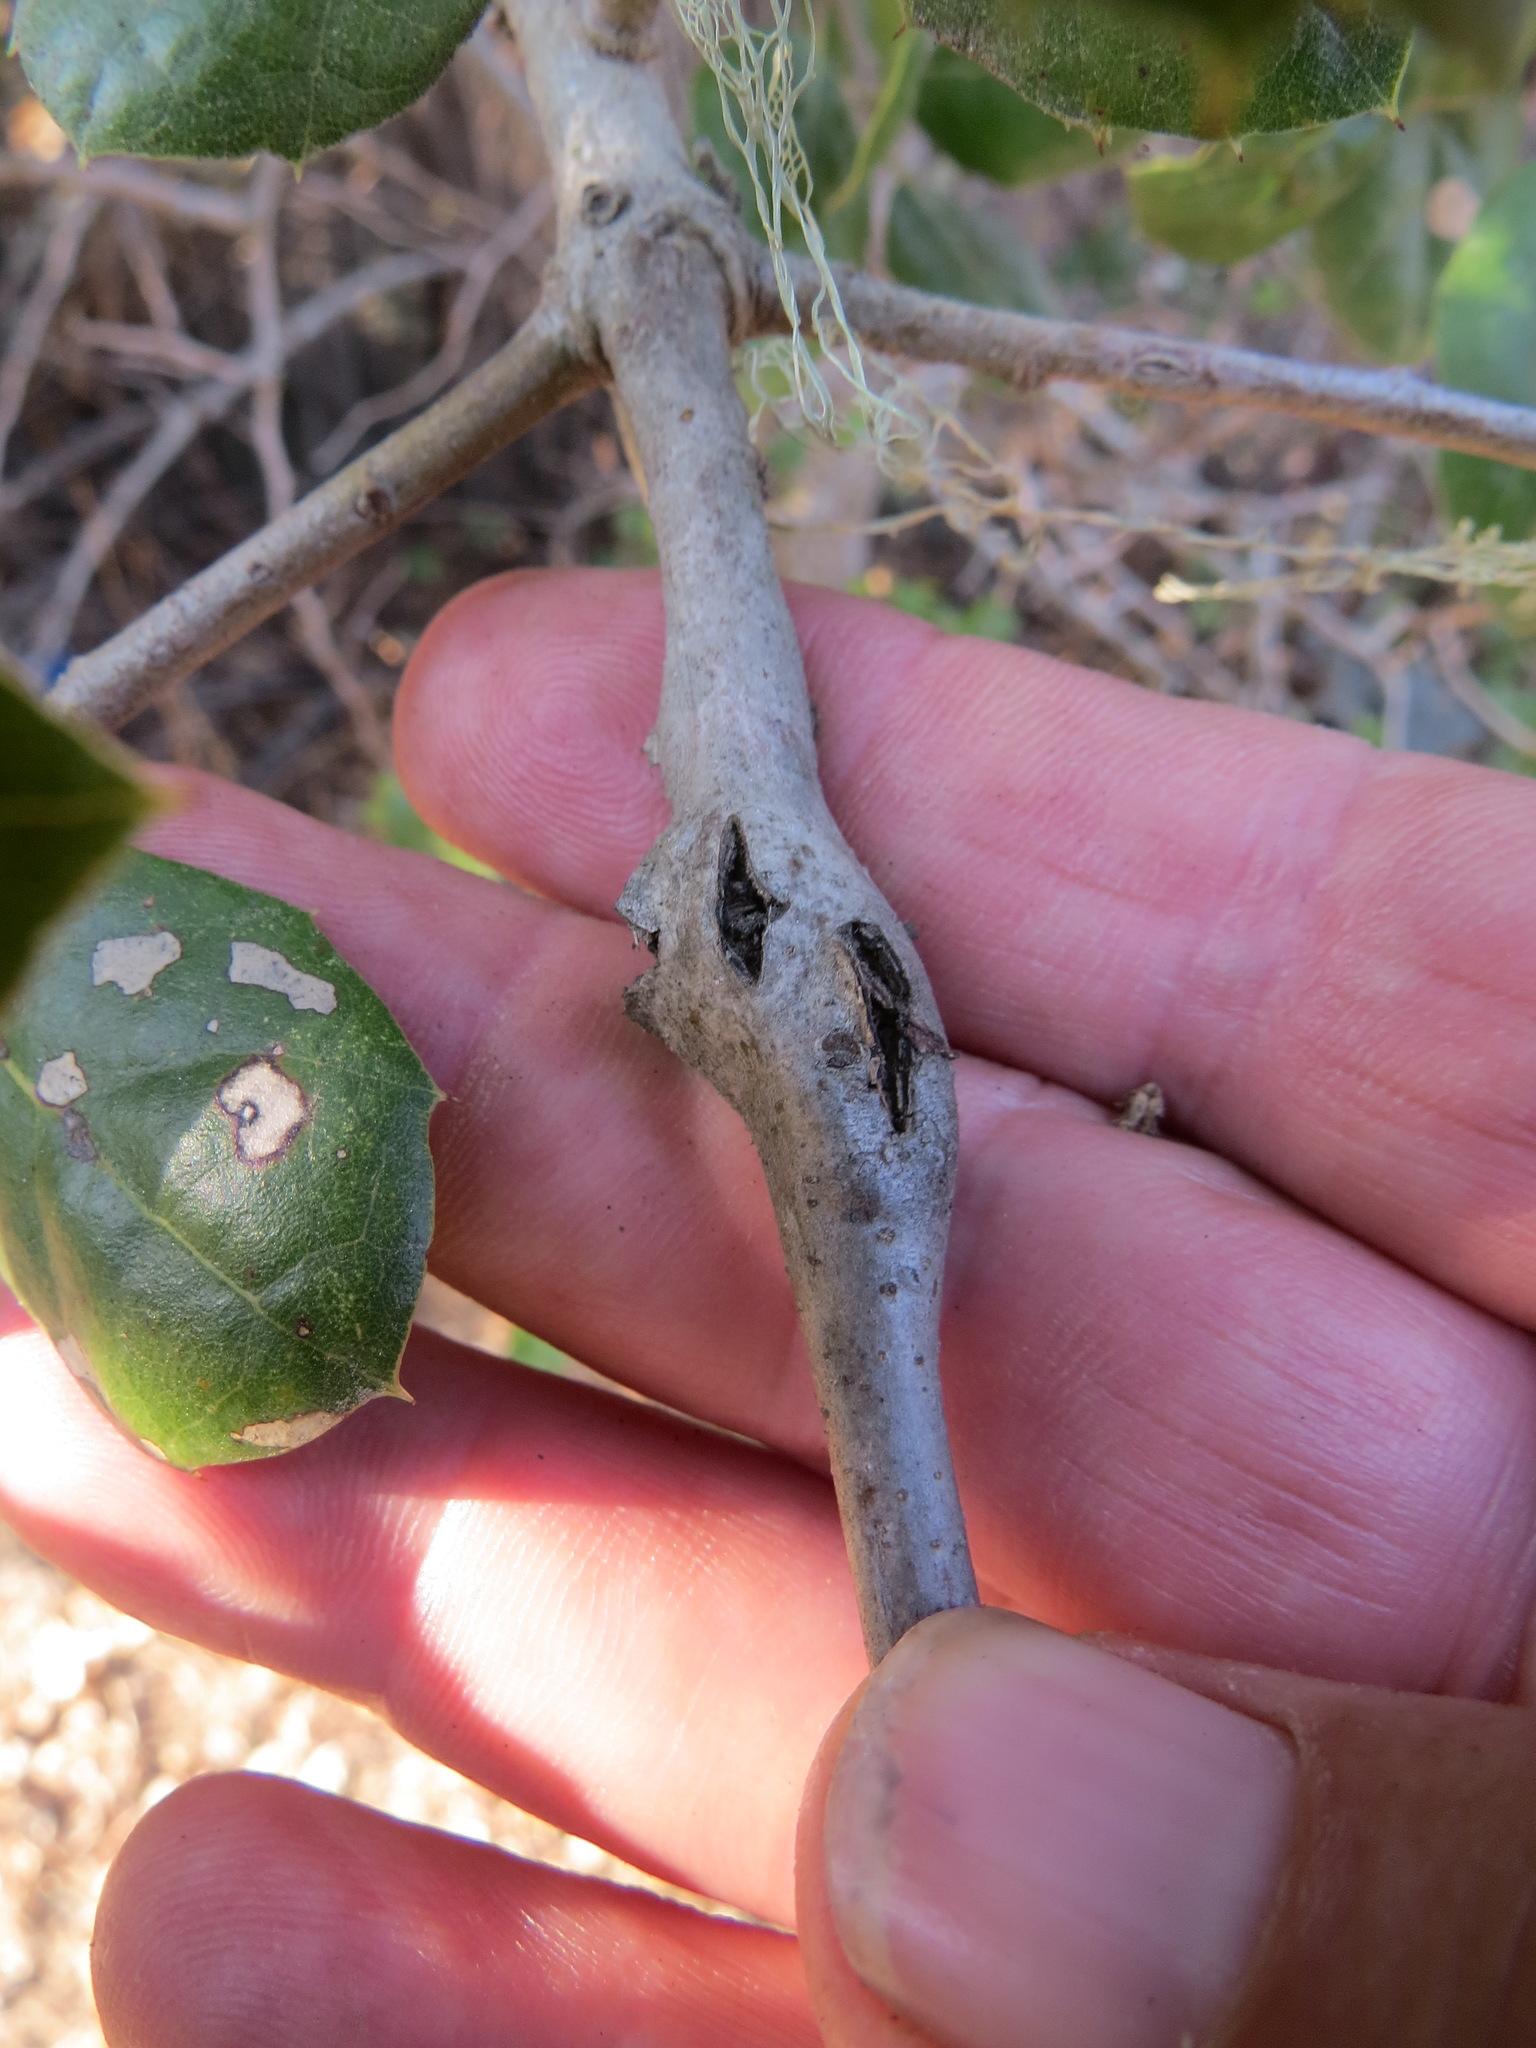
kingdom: Animalia
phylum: Arthropoda
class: Insecta
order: Hymenoptera
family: Cynipidae
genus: Callirhytis
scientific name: Callirhytis
